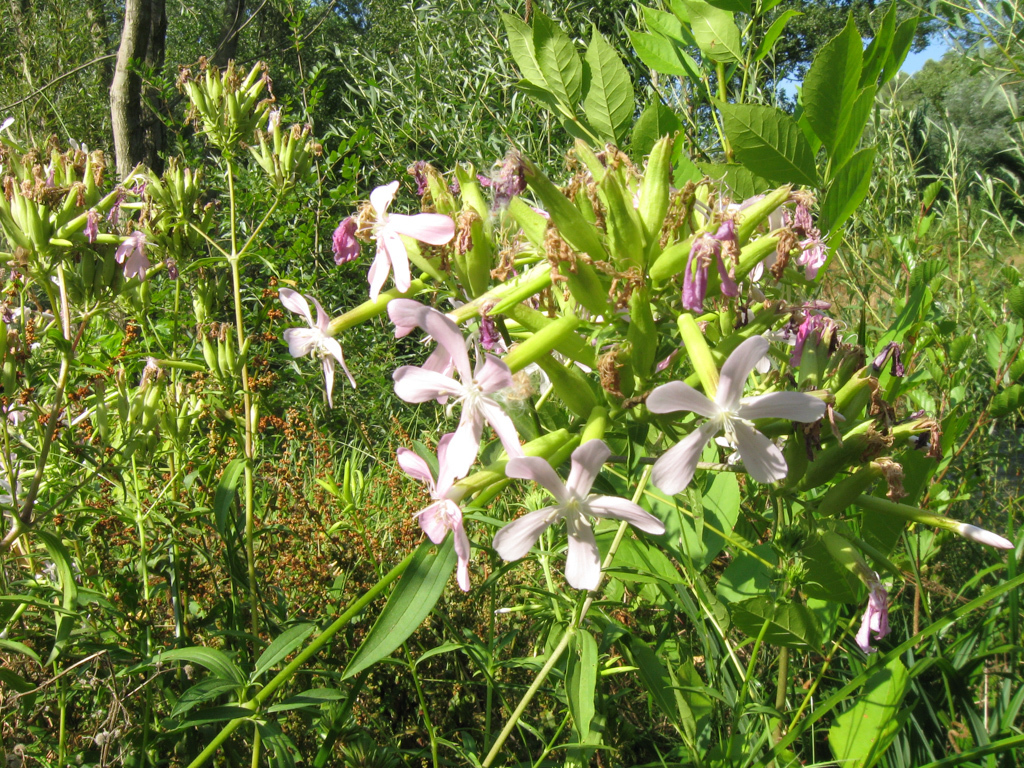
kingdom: Plantae
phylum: Tracheophyta
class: Magnoliopsida
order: Caryophyllales
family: Caryophyllaceae
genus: Saponaria
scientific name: Saponaria officinalis
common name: Soapwort
